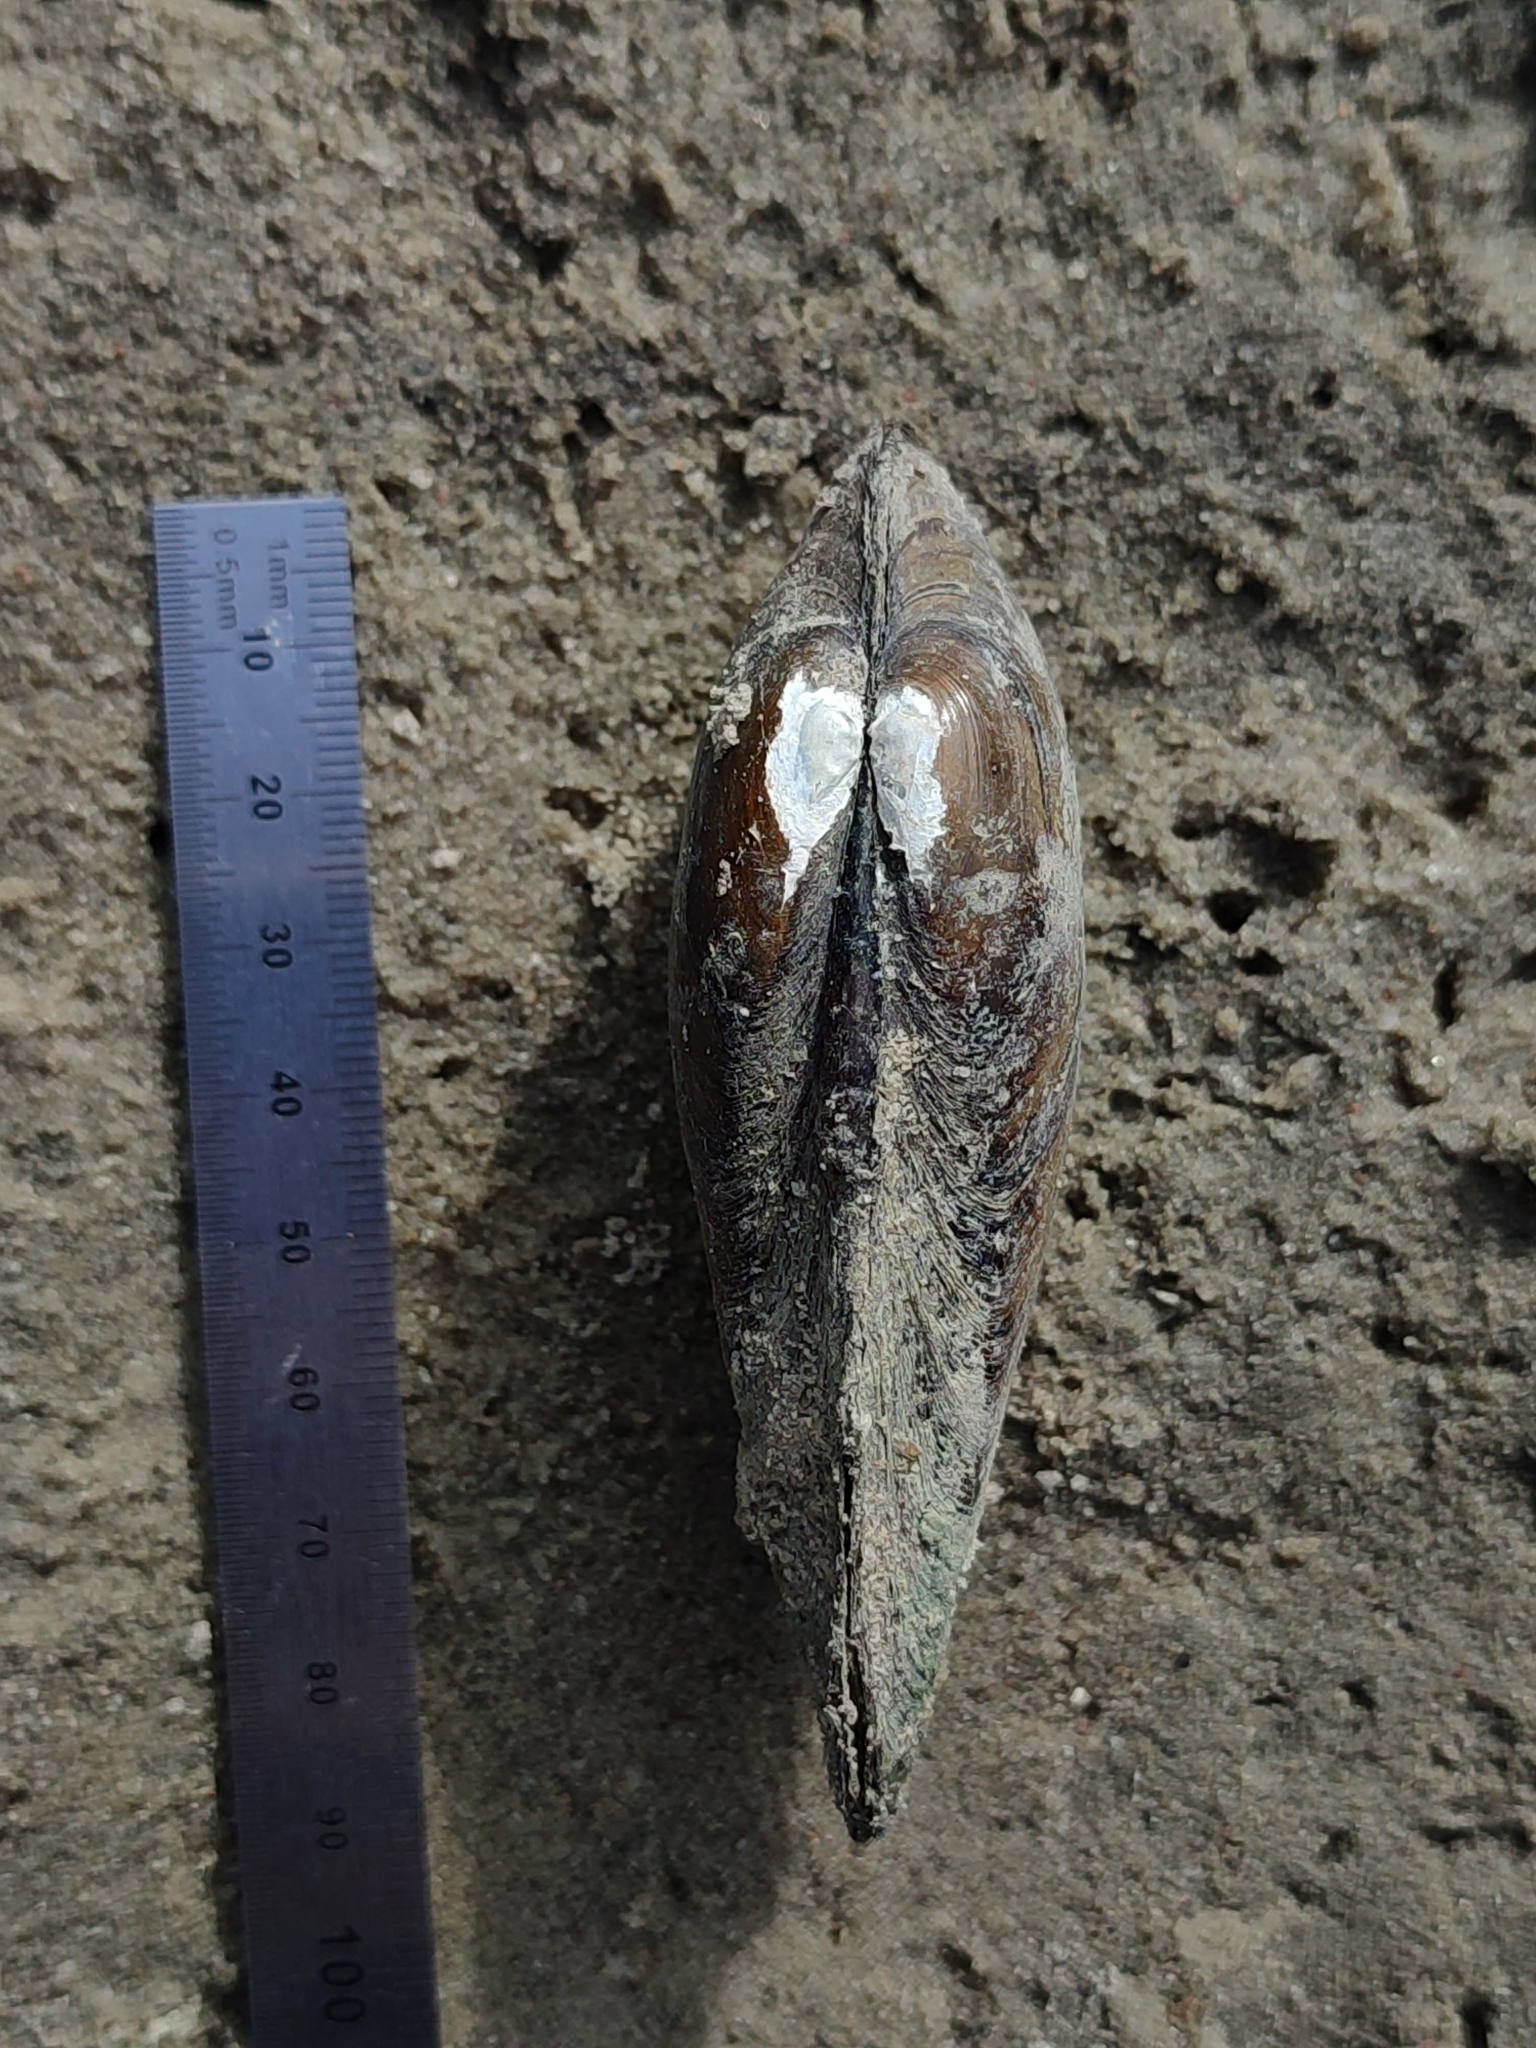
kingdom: Animalia
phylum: Mollusca
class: Bivalvia
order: Unionida
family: Unionidae
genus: Unio
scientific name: Unio pictorum
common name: Painter's mussel
